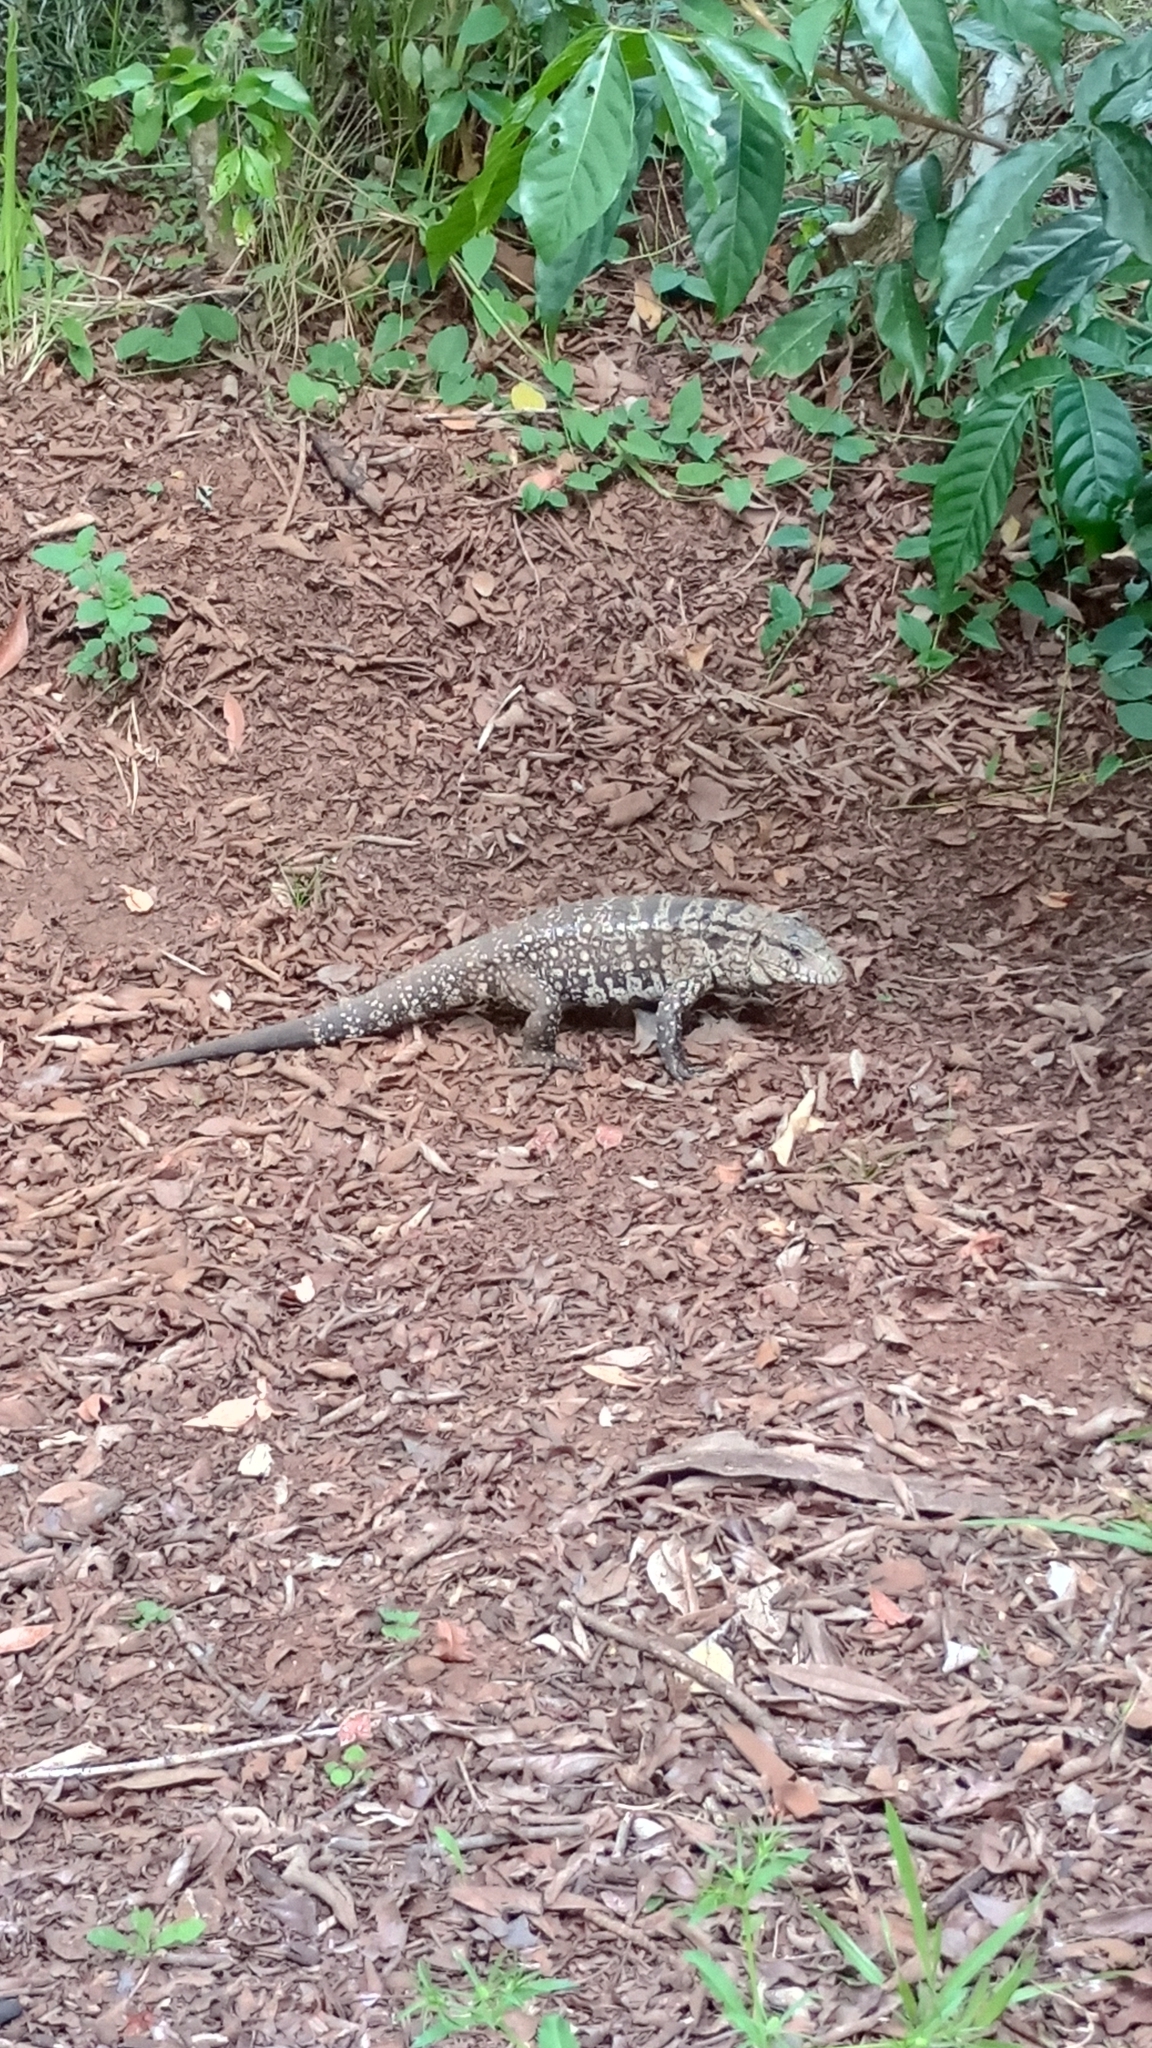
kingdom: Animalia
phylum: Chordata
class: Squamata
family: Teiidae
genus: Salvator
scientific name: Salvator merianae
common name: Argentine black and white tegu
